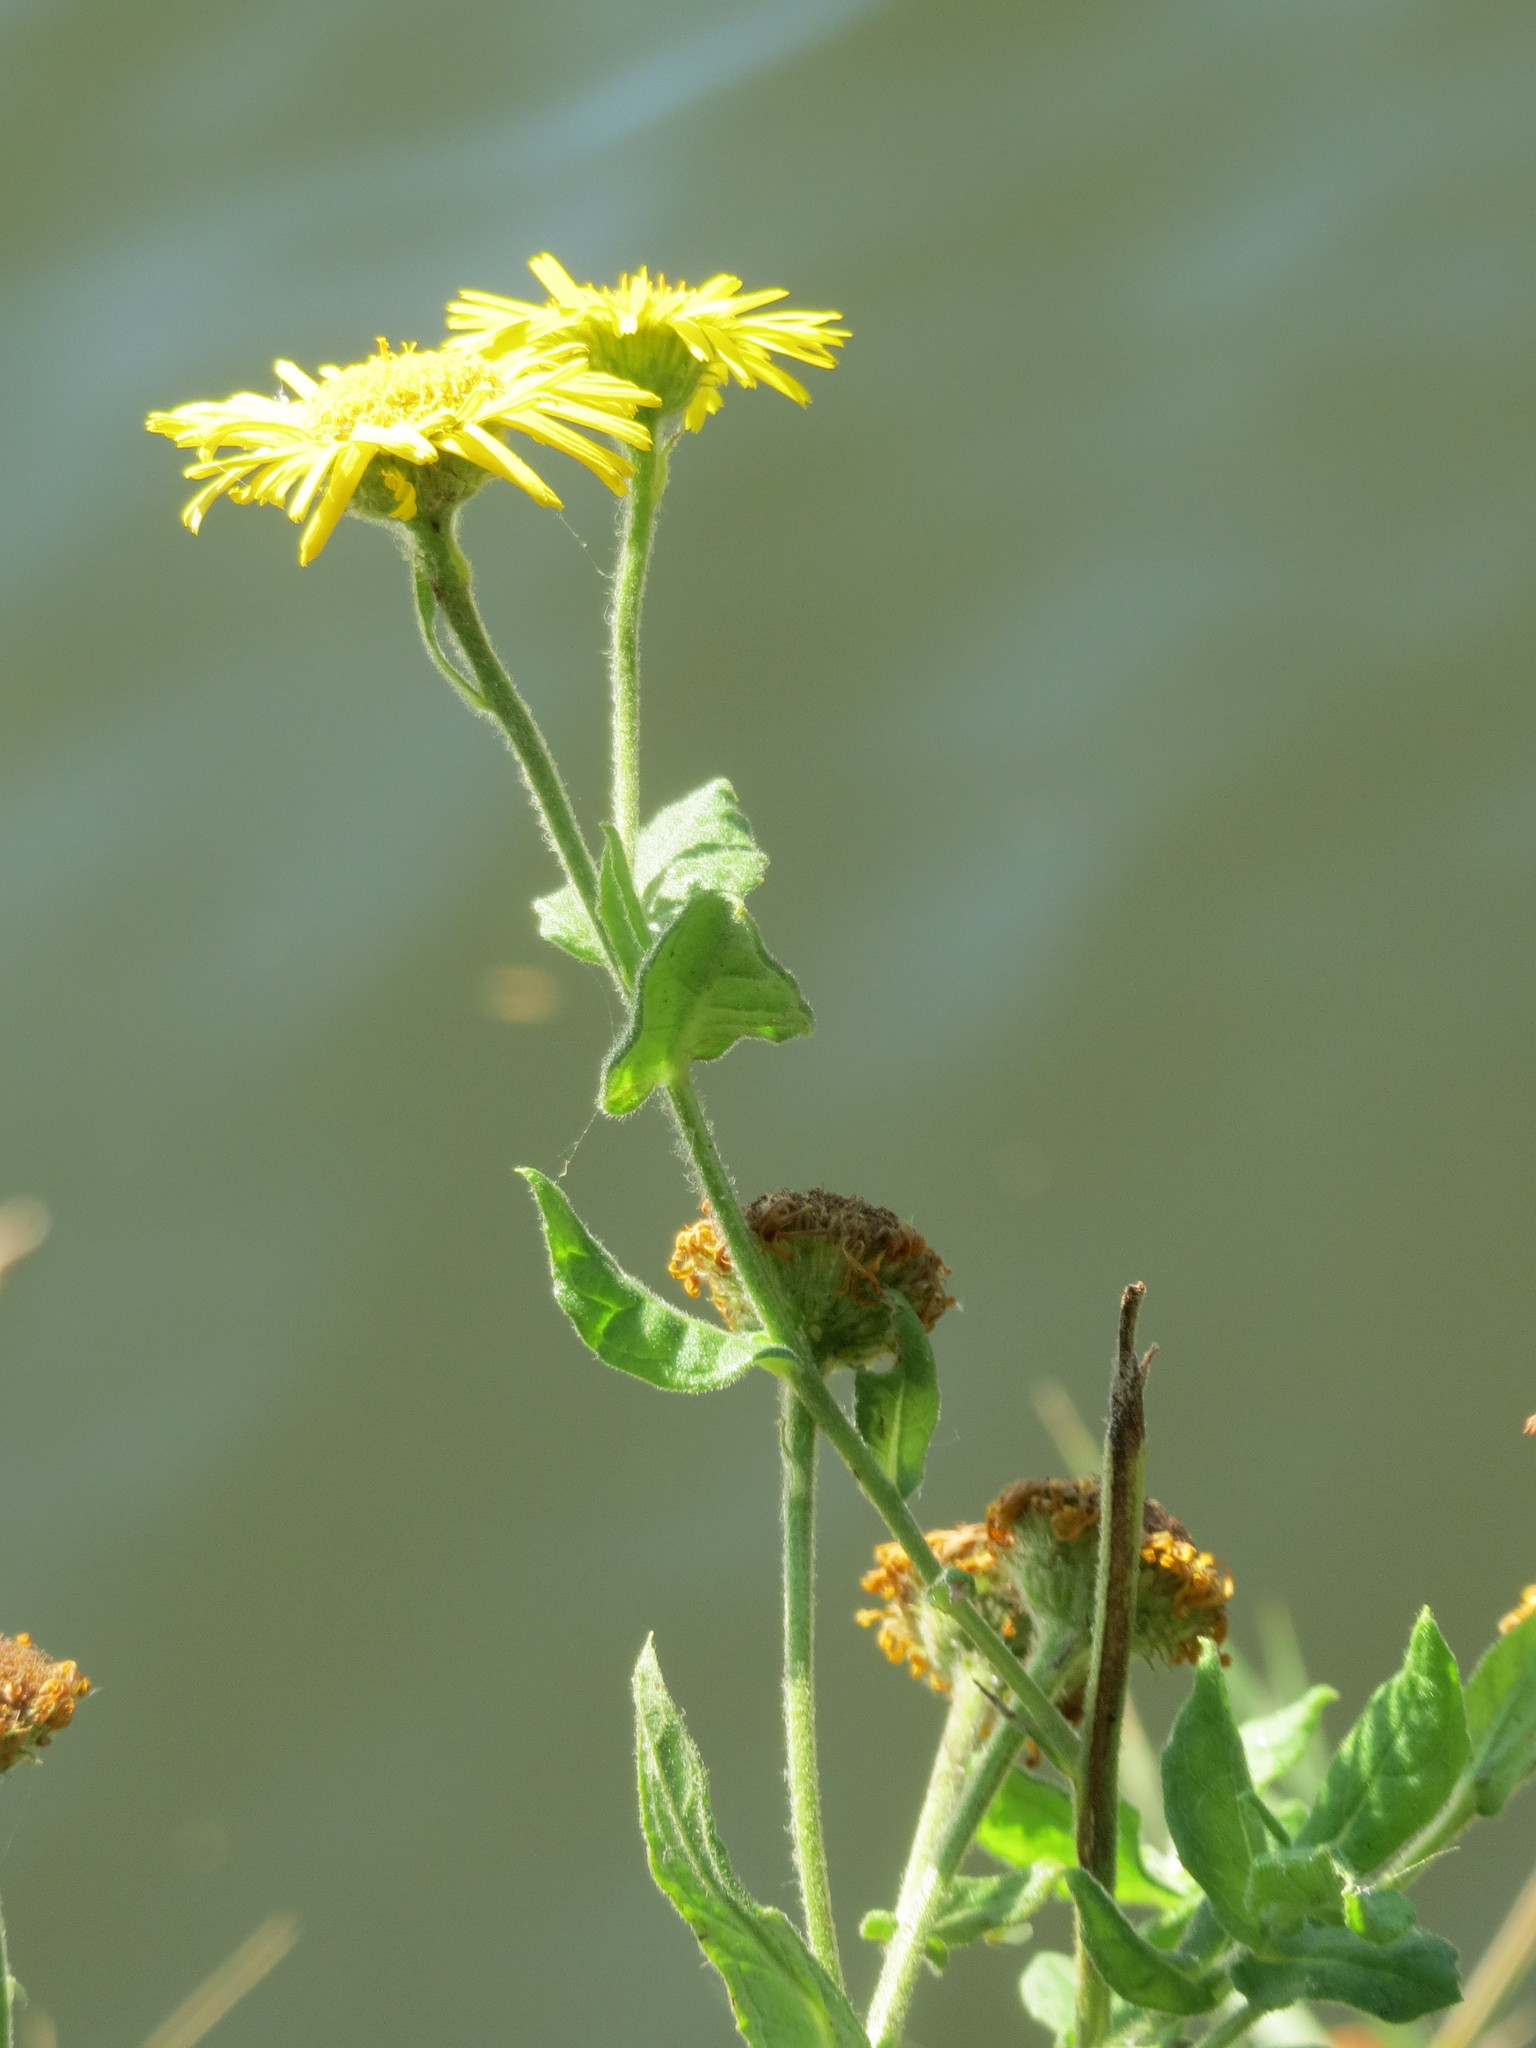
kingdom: Plantae
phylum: Tracheophyta
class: Magnoliopsida
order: Asterales
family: Asteraceae
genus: Pulicaria
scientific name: Pulicaria dysenterica
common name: Common fleabane
